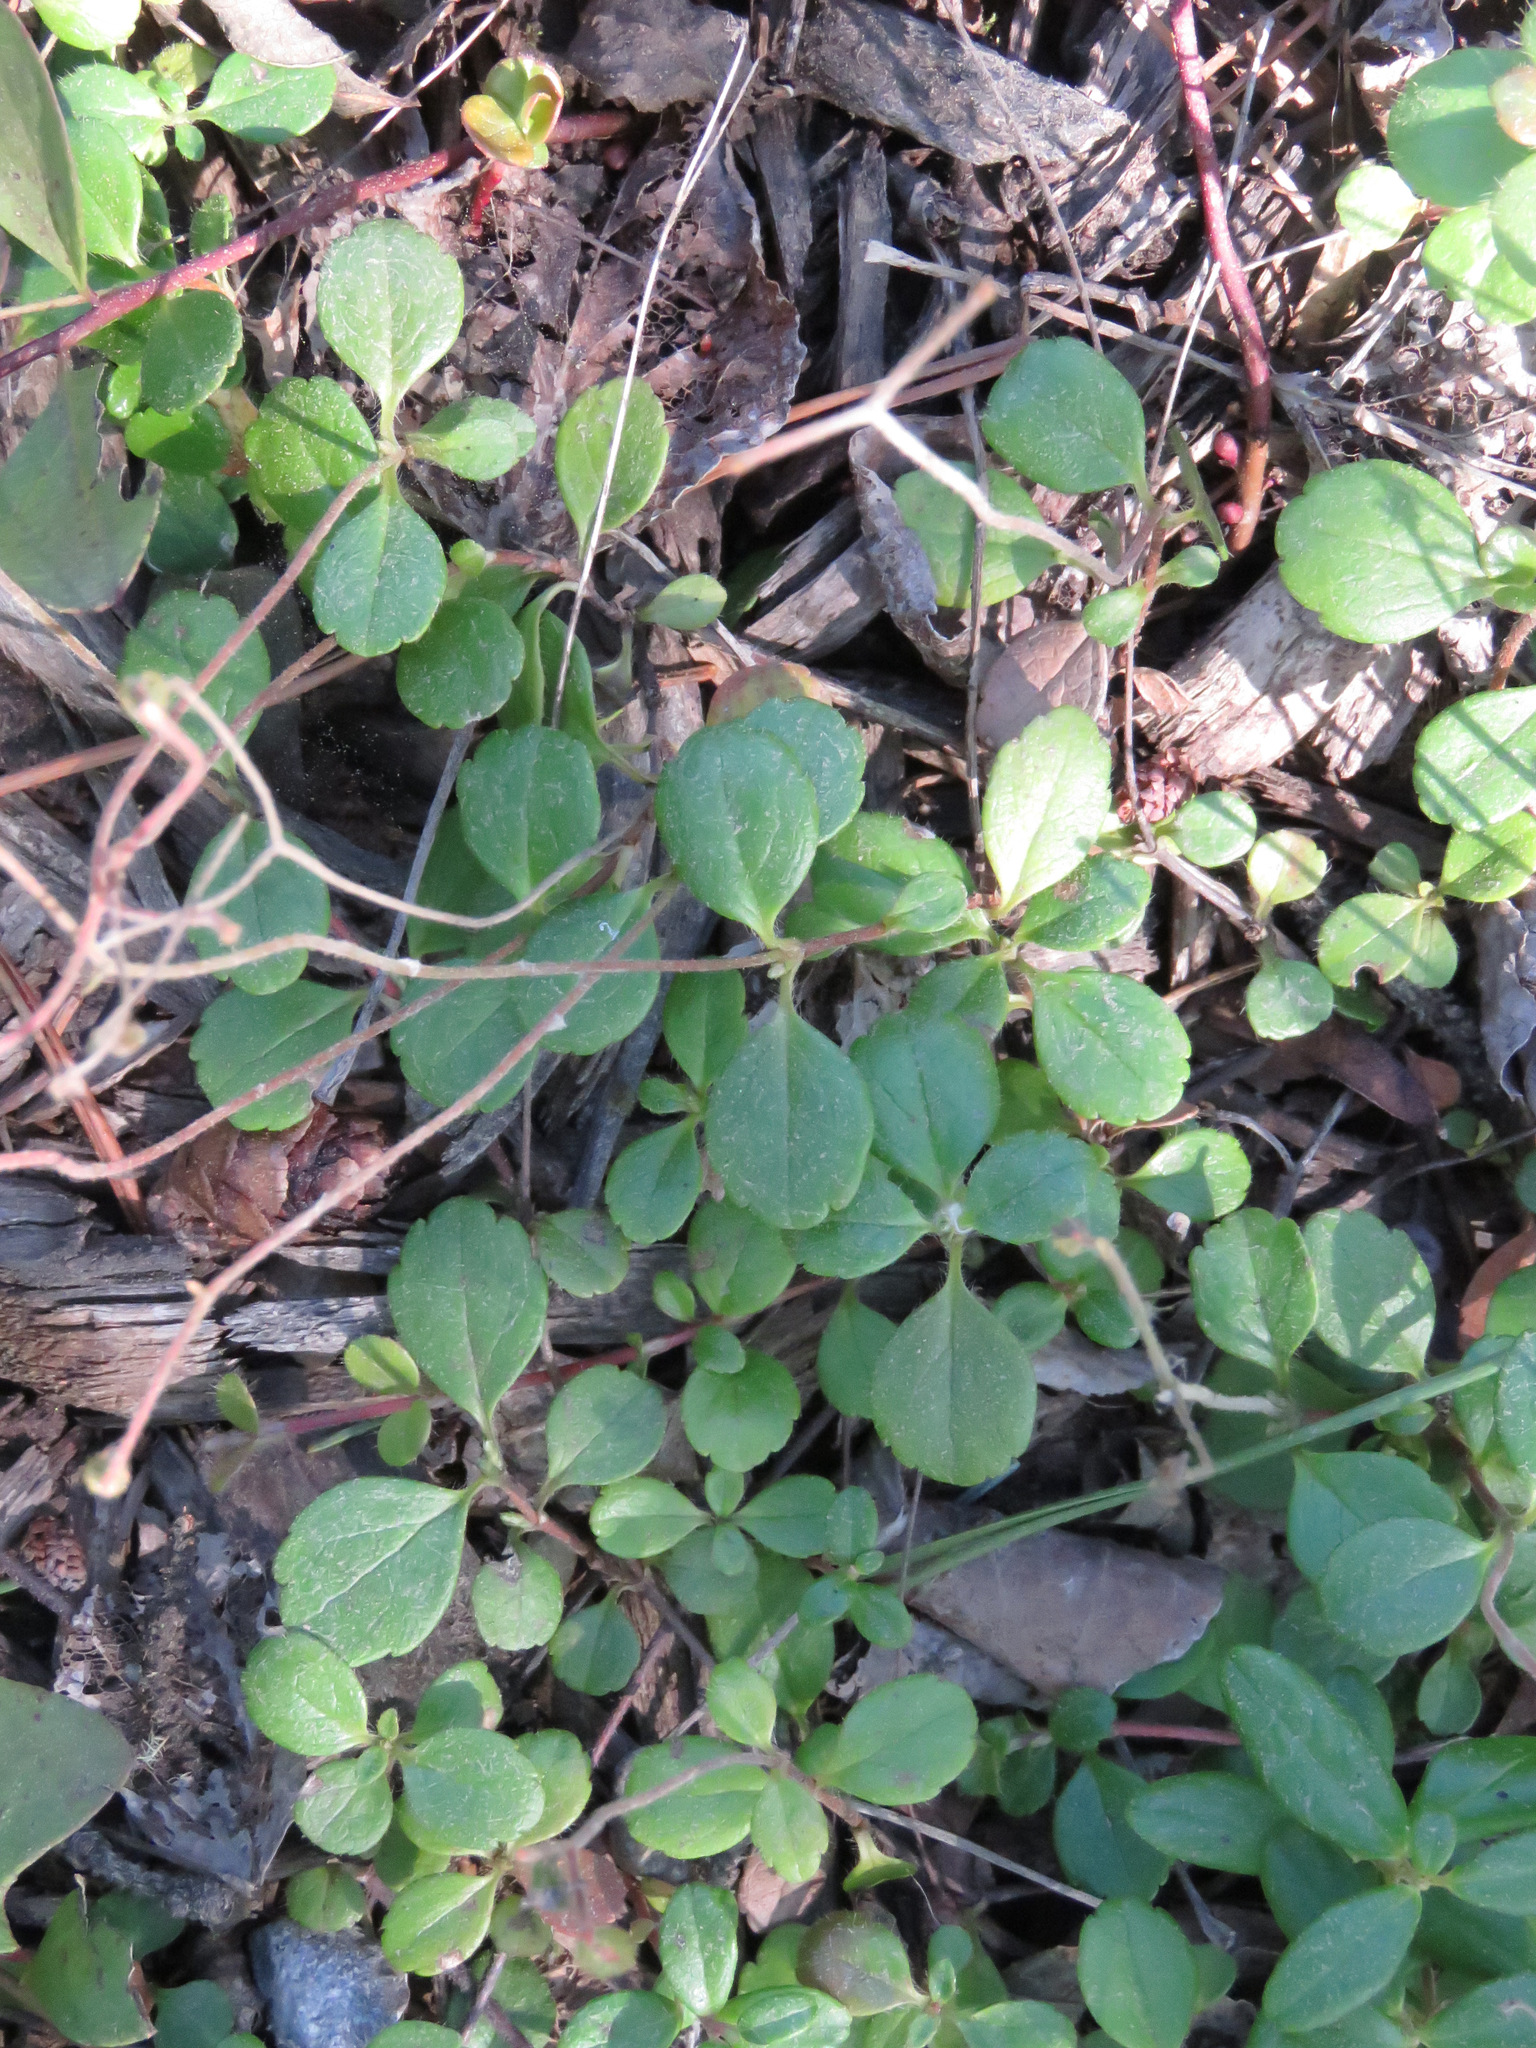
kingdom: Plantae
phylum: Tracheophyta
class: Magnoliopsida
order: Dipsacales
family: Caprifoliaceae
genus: Linnaea
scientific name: Linnaea borealis
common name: Twinflower
